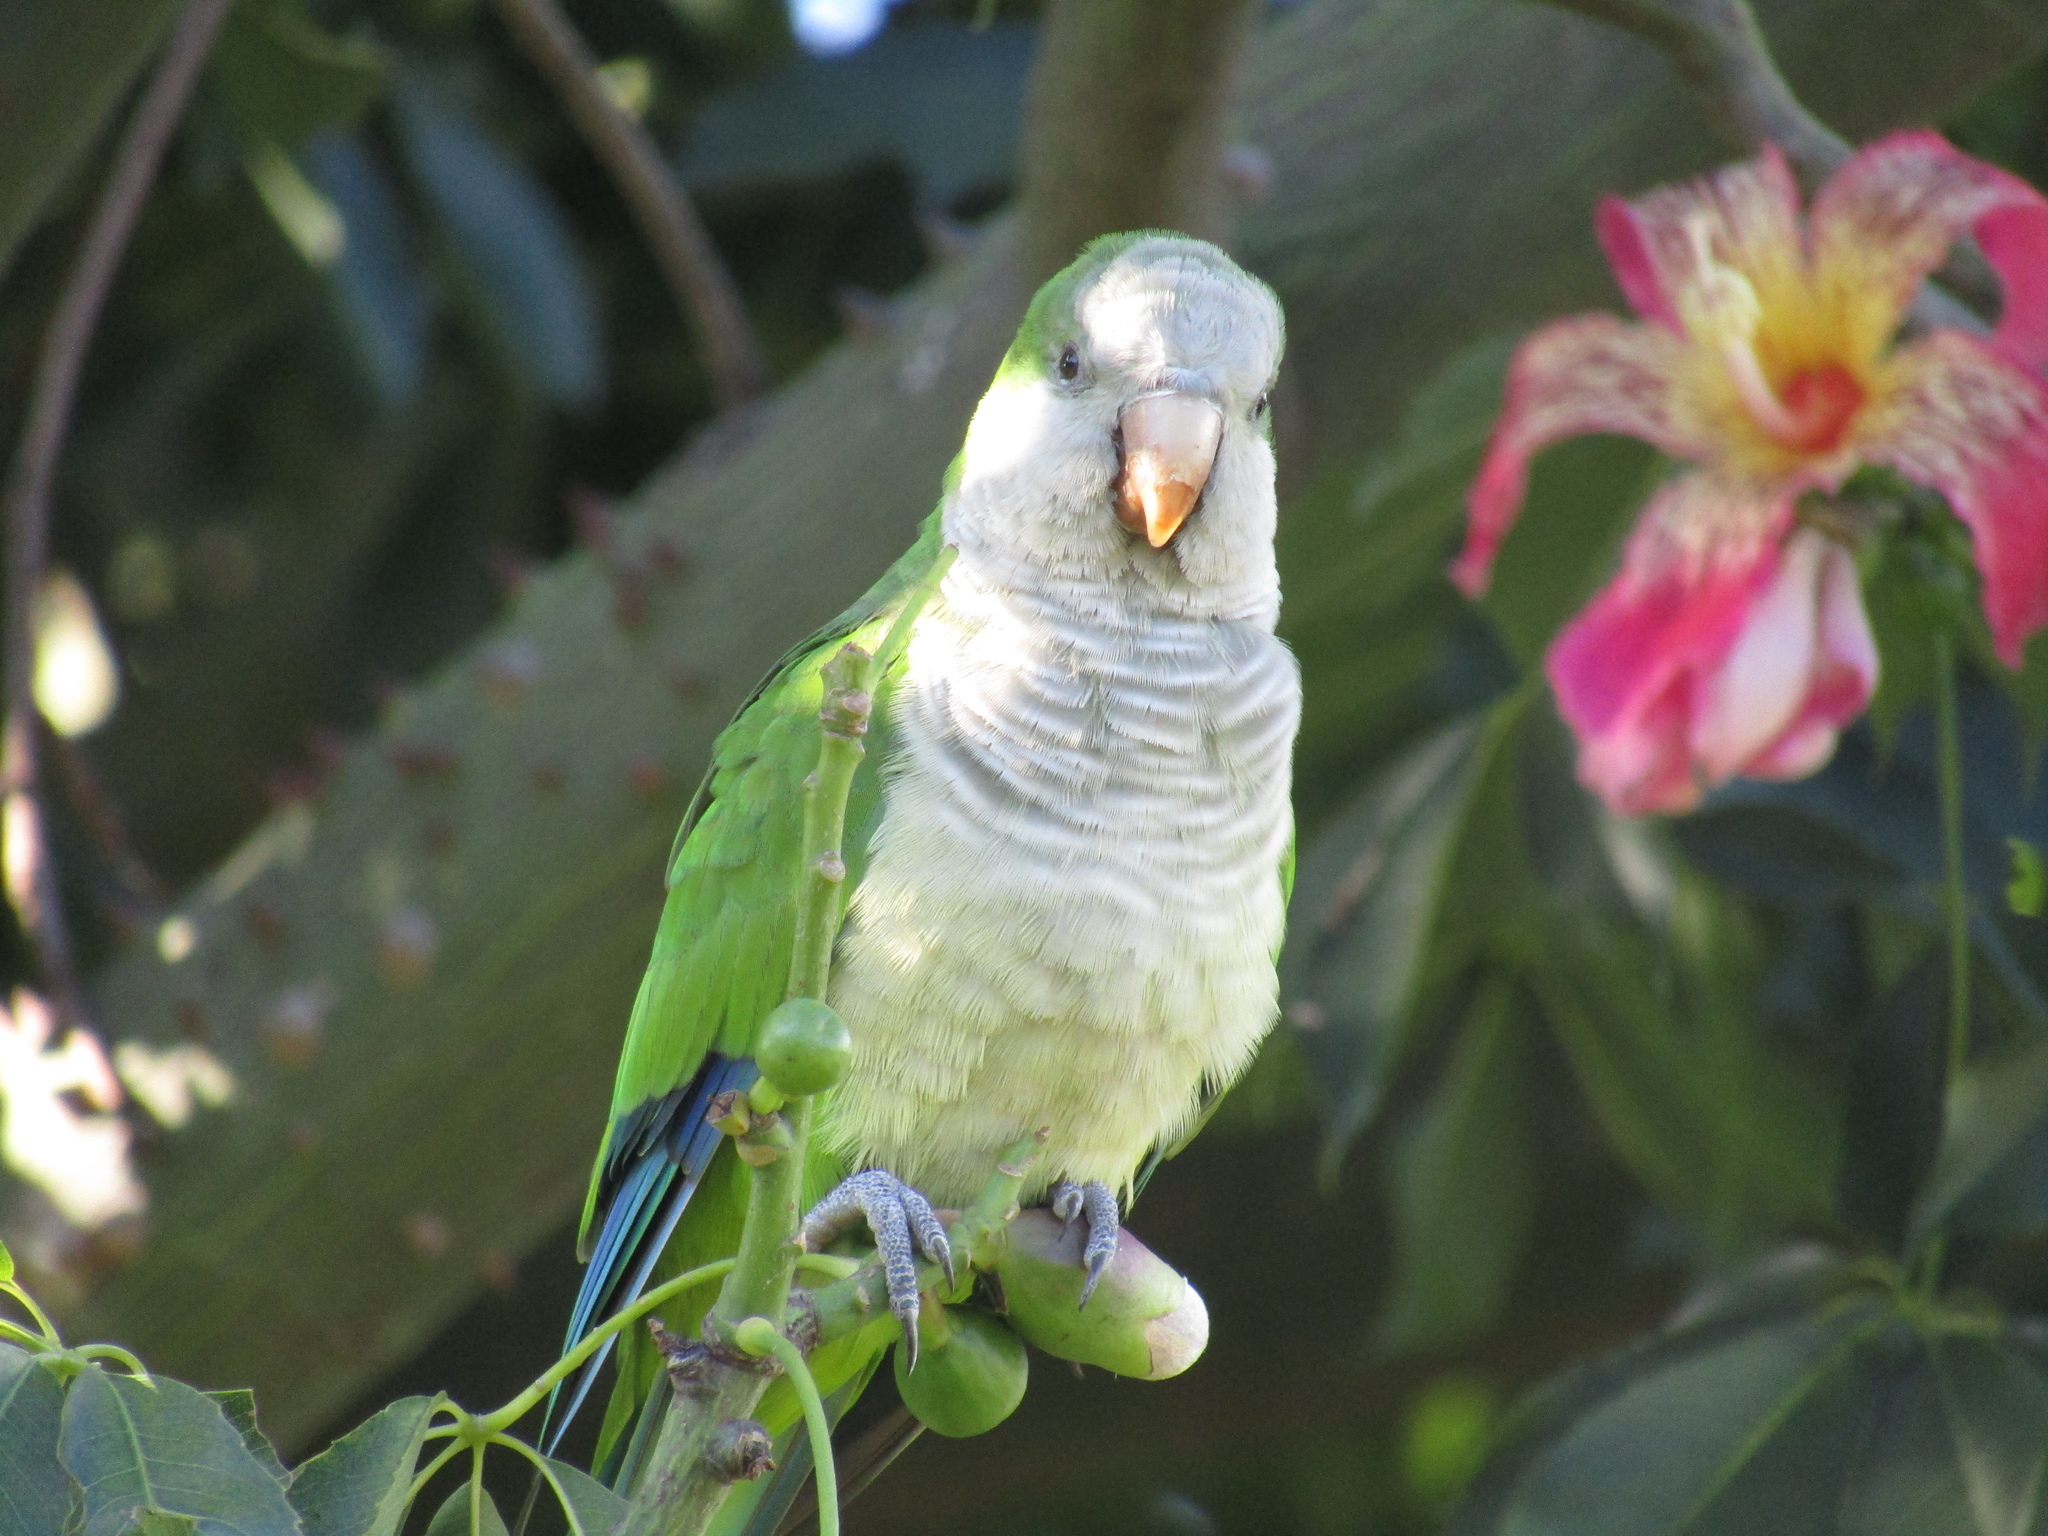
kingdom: Animalia
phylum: Chordata
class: Aves
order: Psittaciformes
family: Psittacidae
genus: Myiopsitta
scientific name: Myiopsitta monachus
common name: Monk parakeet
